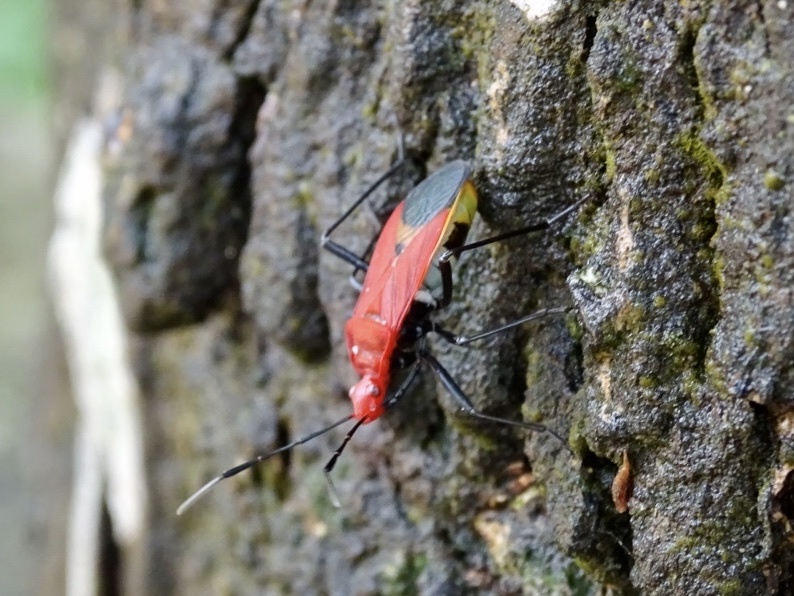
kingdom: Animalia
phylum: Arthropoda
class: Insecta
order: Hemiptera
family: Pyrrhocoridae
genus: Dindymus
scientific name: Dindymus
